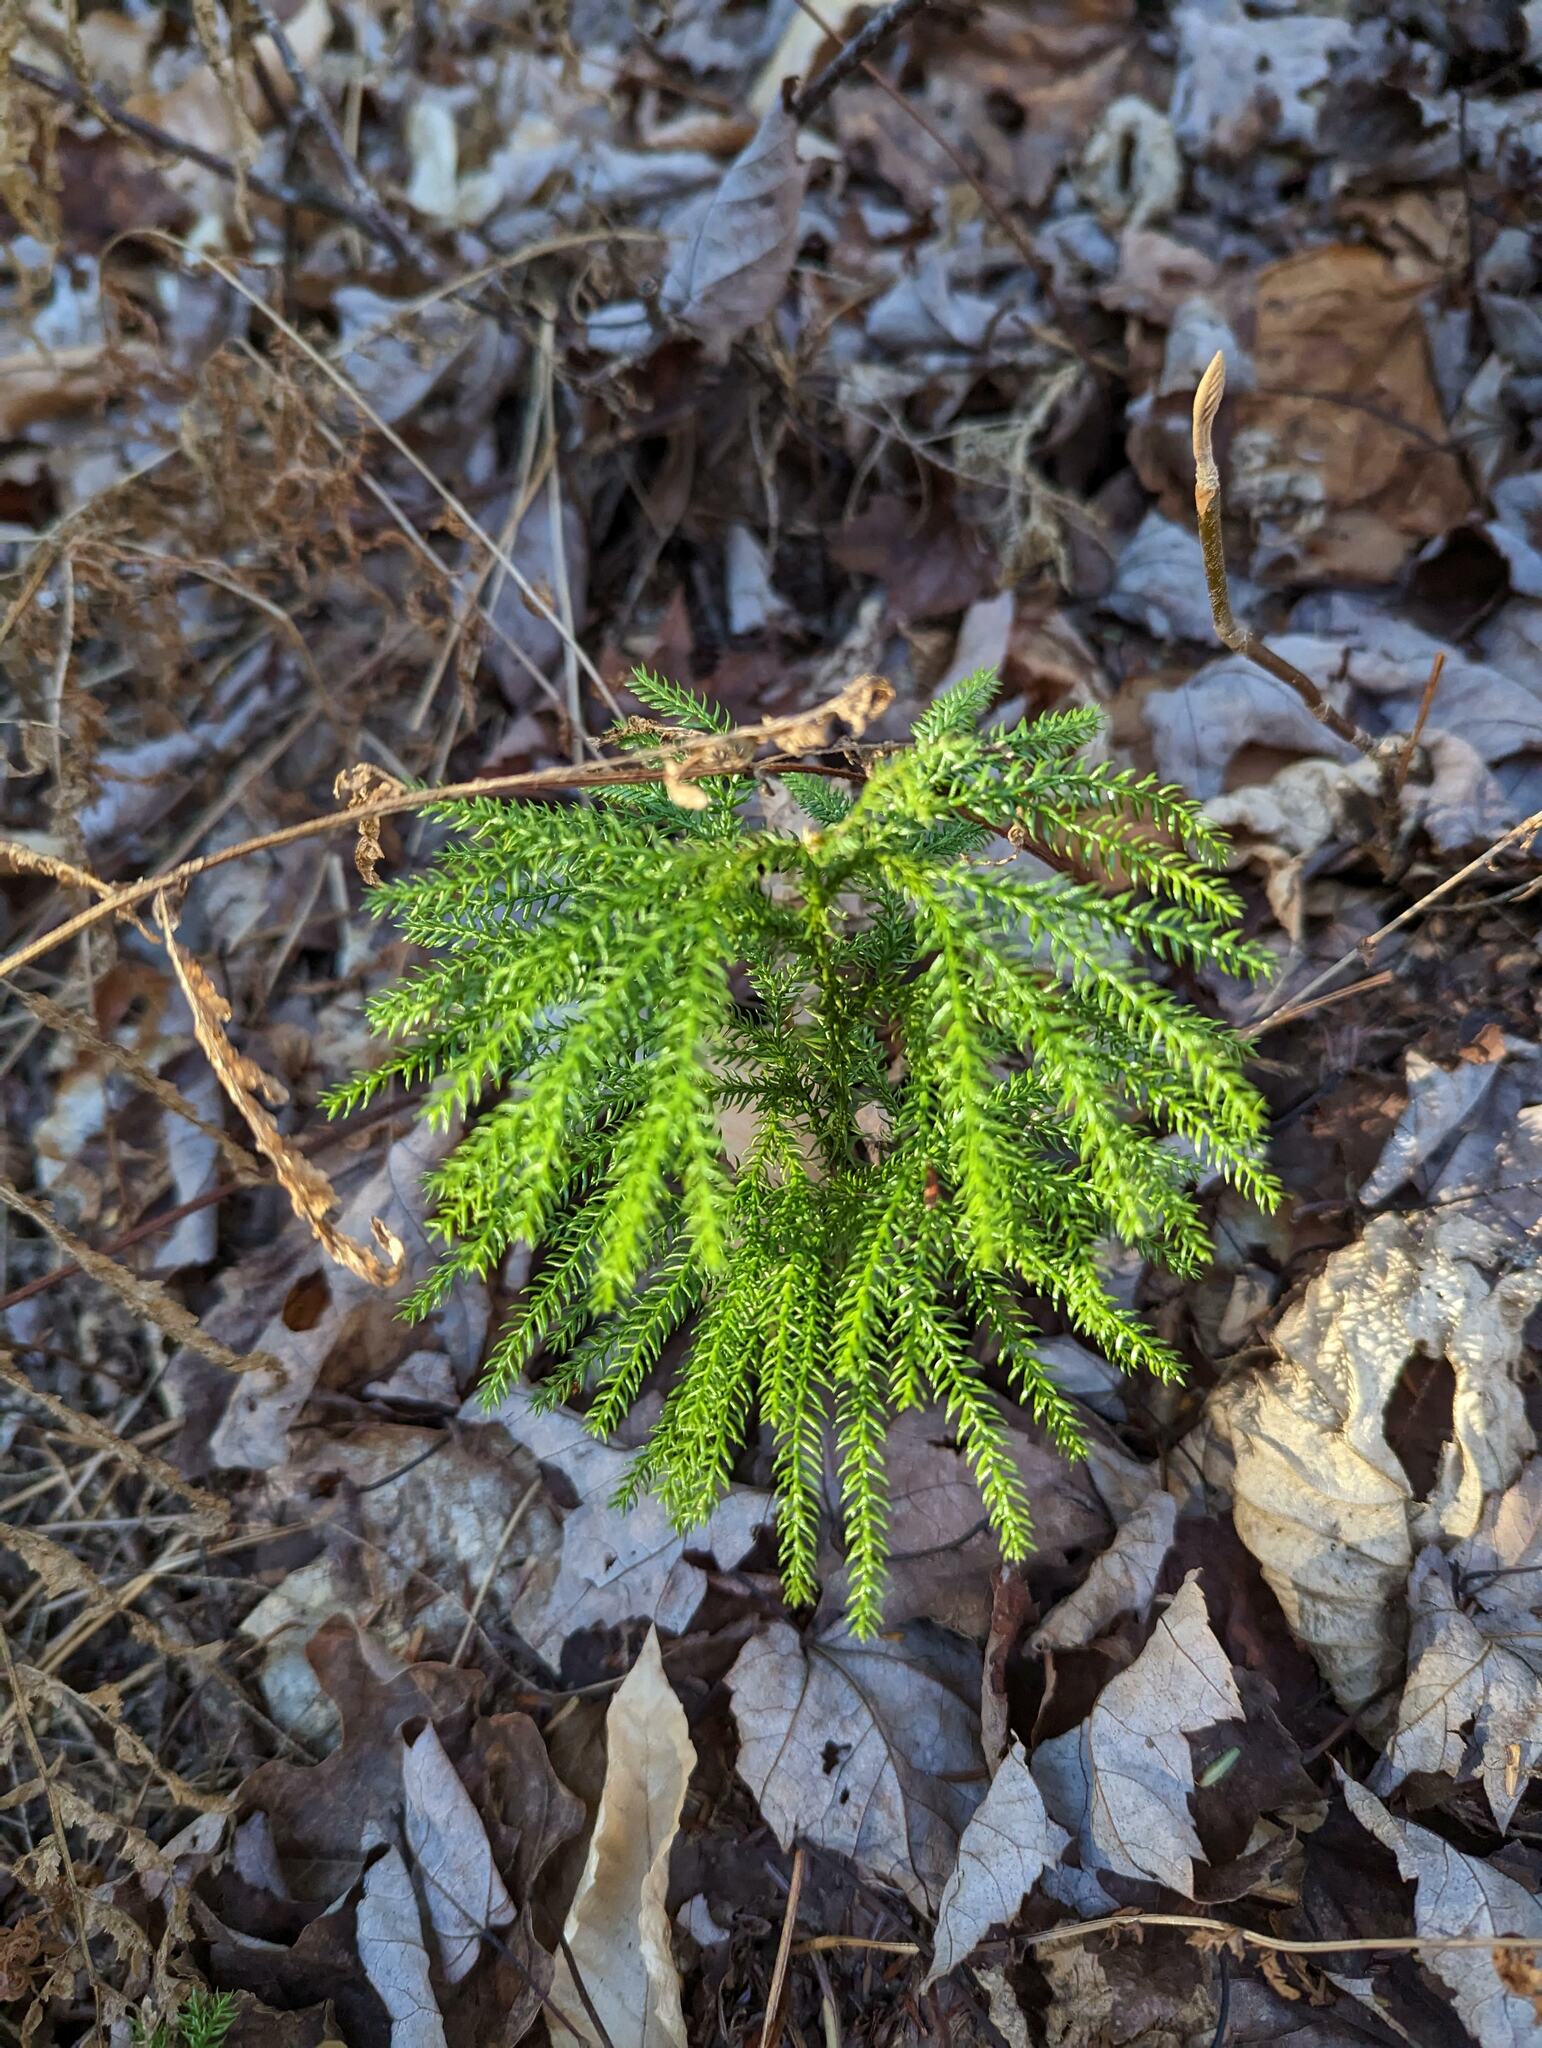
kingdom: Plantae
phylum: Tracheophyta
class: Lycopodiopsida
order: Lycopodiales
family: Lycopodiaceae
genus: Dendrolycopodium
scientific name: Dendrolycopodium dendroideum
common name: Northern tree-clubmoss
